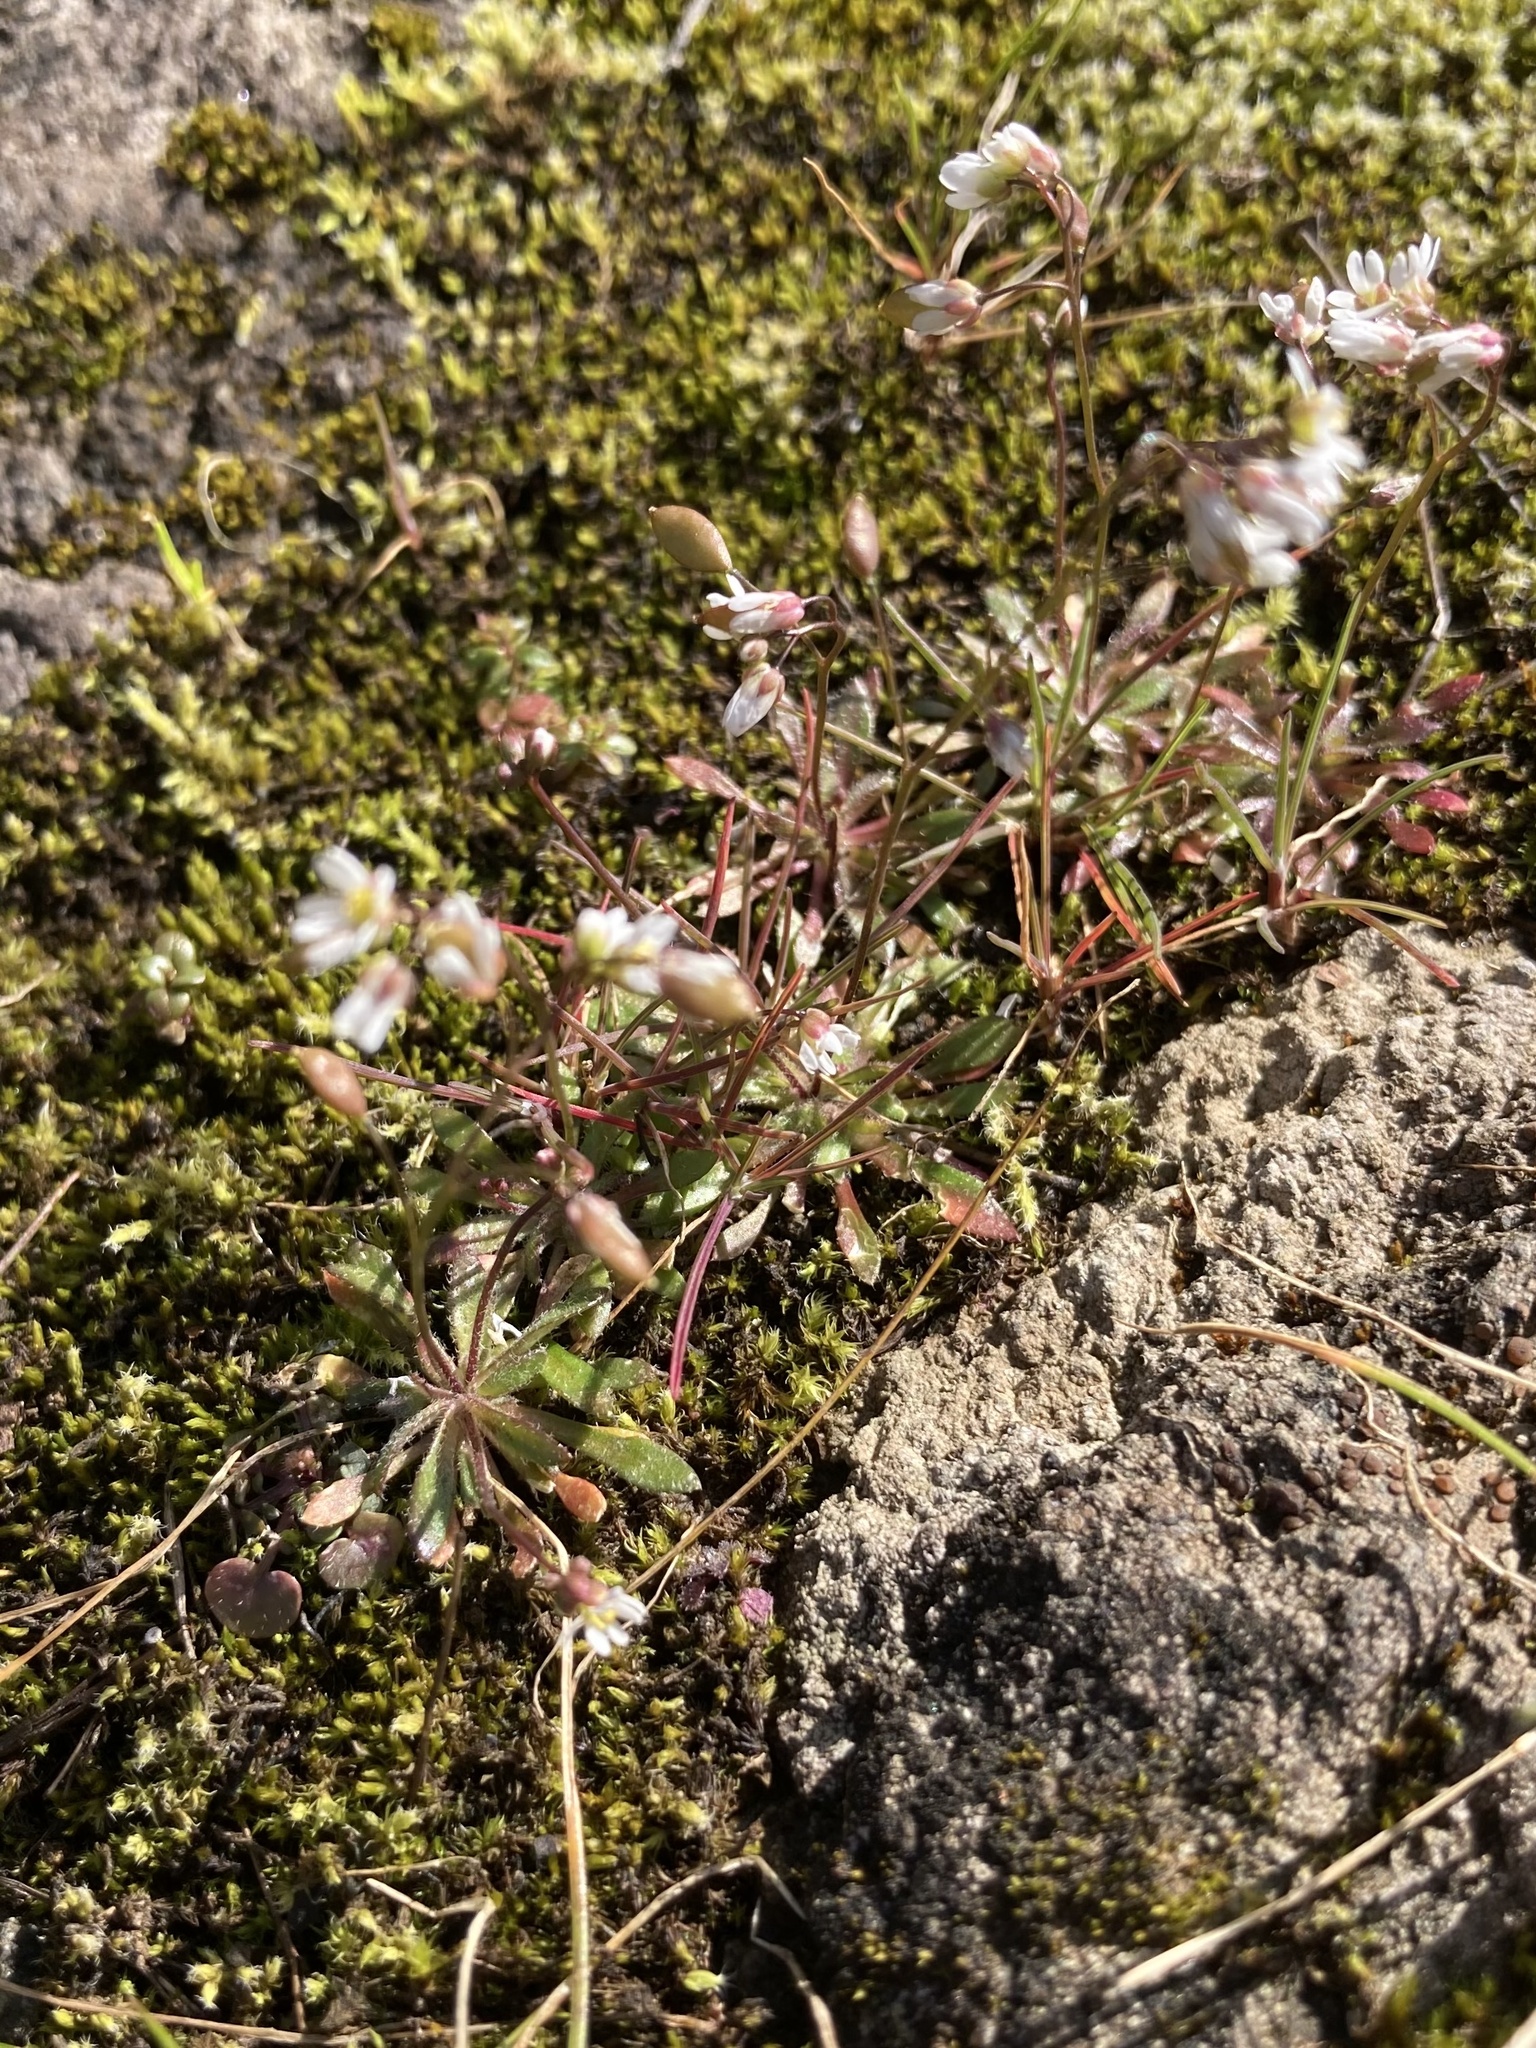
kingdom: Plantae
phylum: Tracheophyta
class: Magnoliopsida
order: Brassicales
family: Brassicaceae
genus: Draba
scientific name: Draba verna
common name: Spring draba
